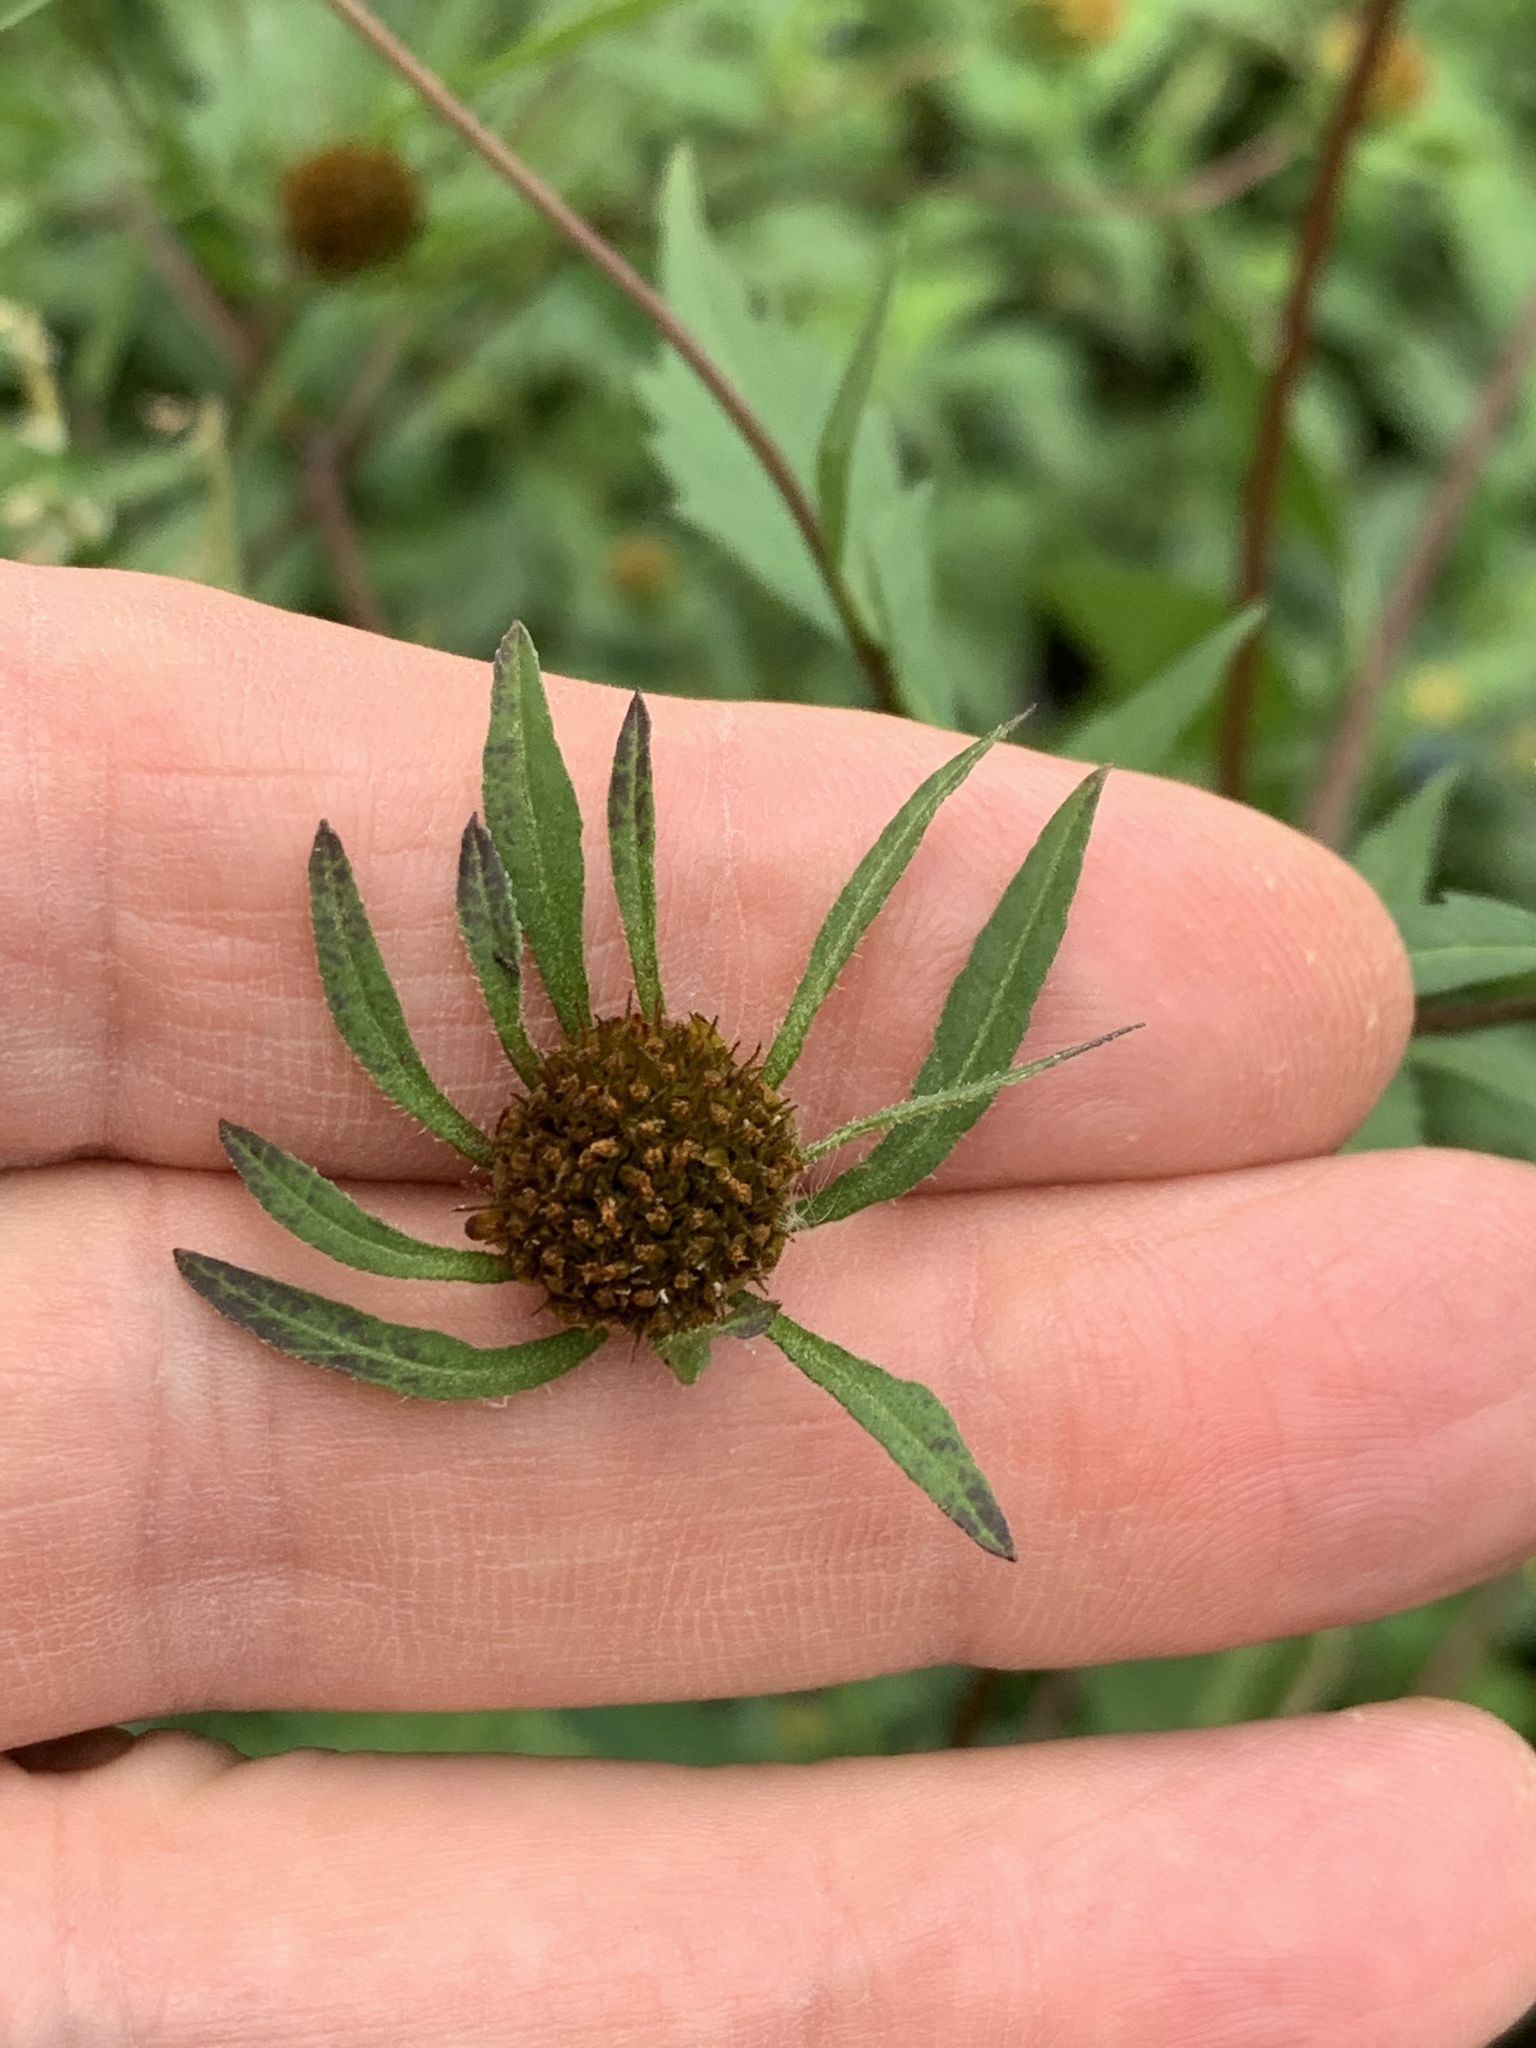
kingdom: Plantae
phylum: Tracheophyta
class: Magnoliopsida
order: Asterales
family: Asteraceae
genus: Bidens
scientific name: Bidens frondosa
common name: Beggarticks
